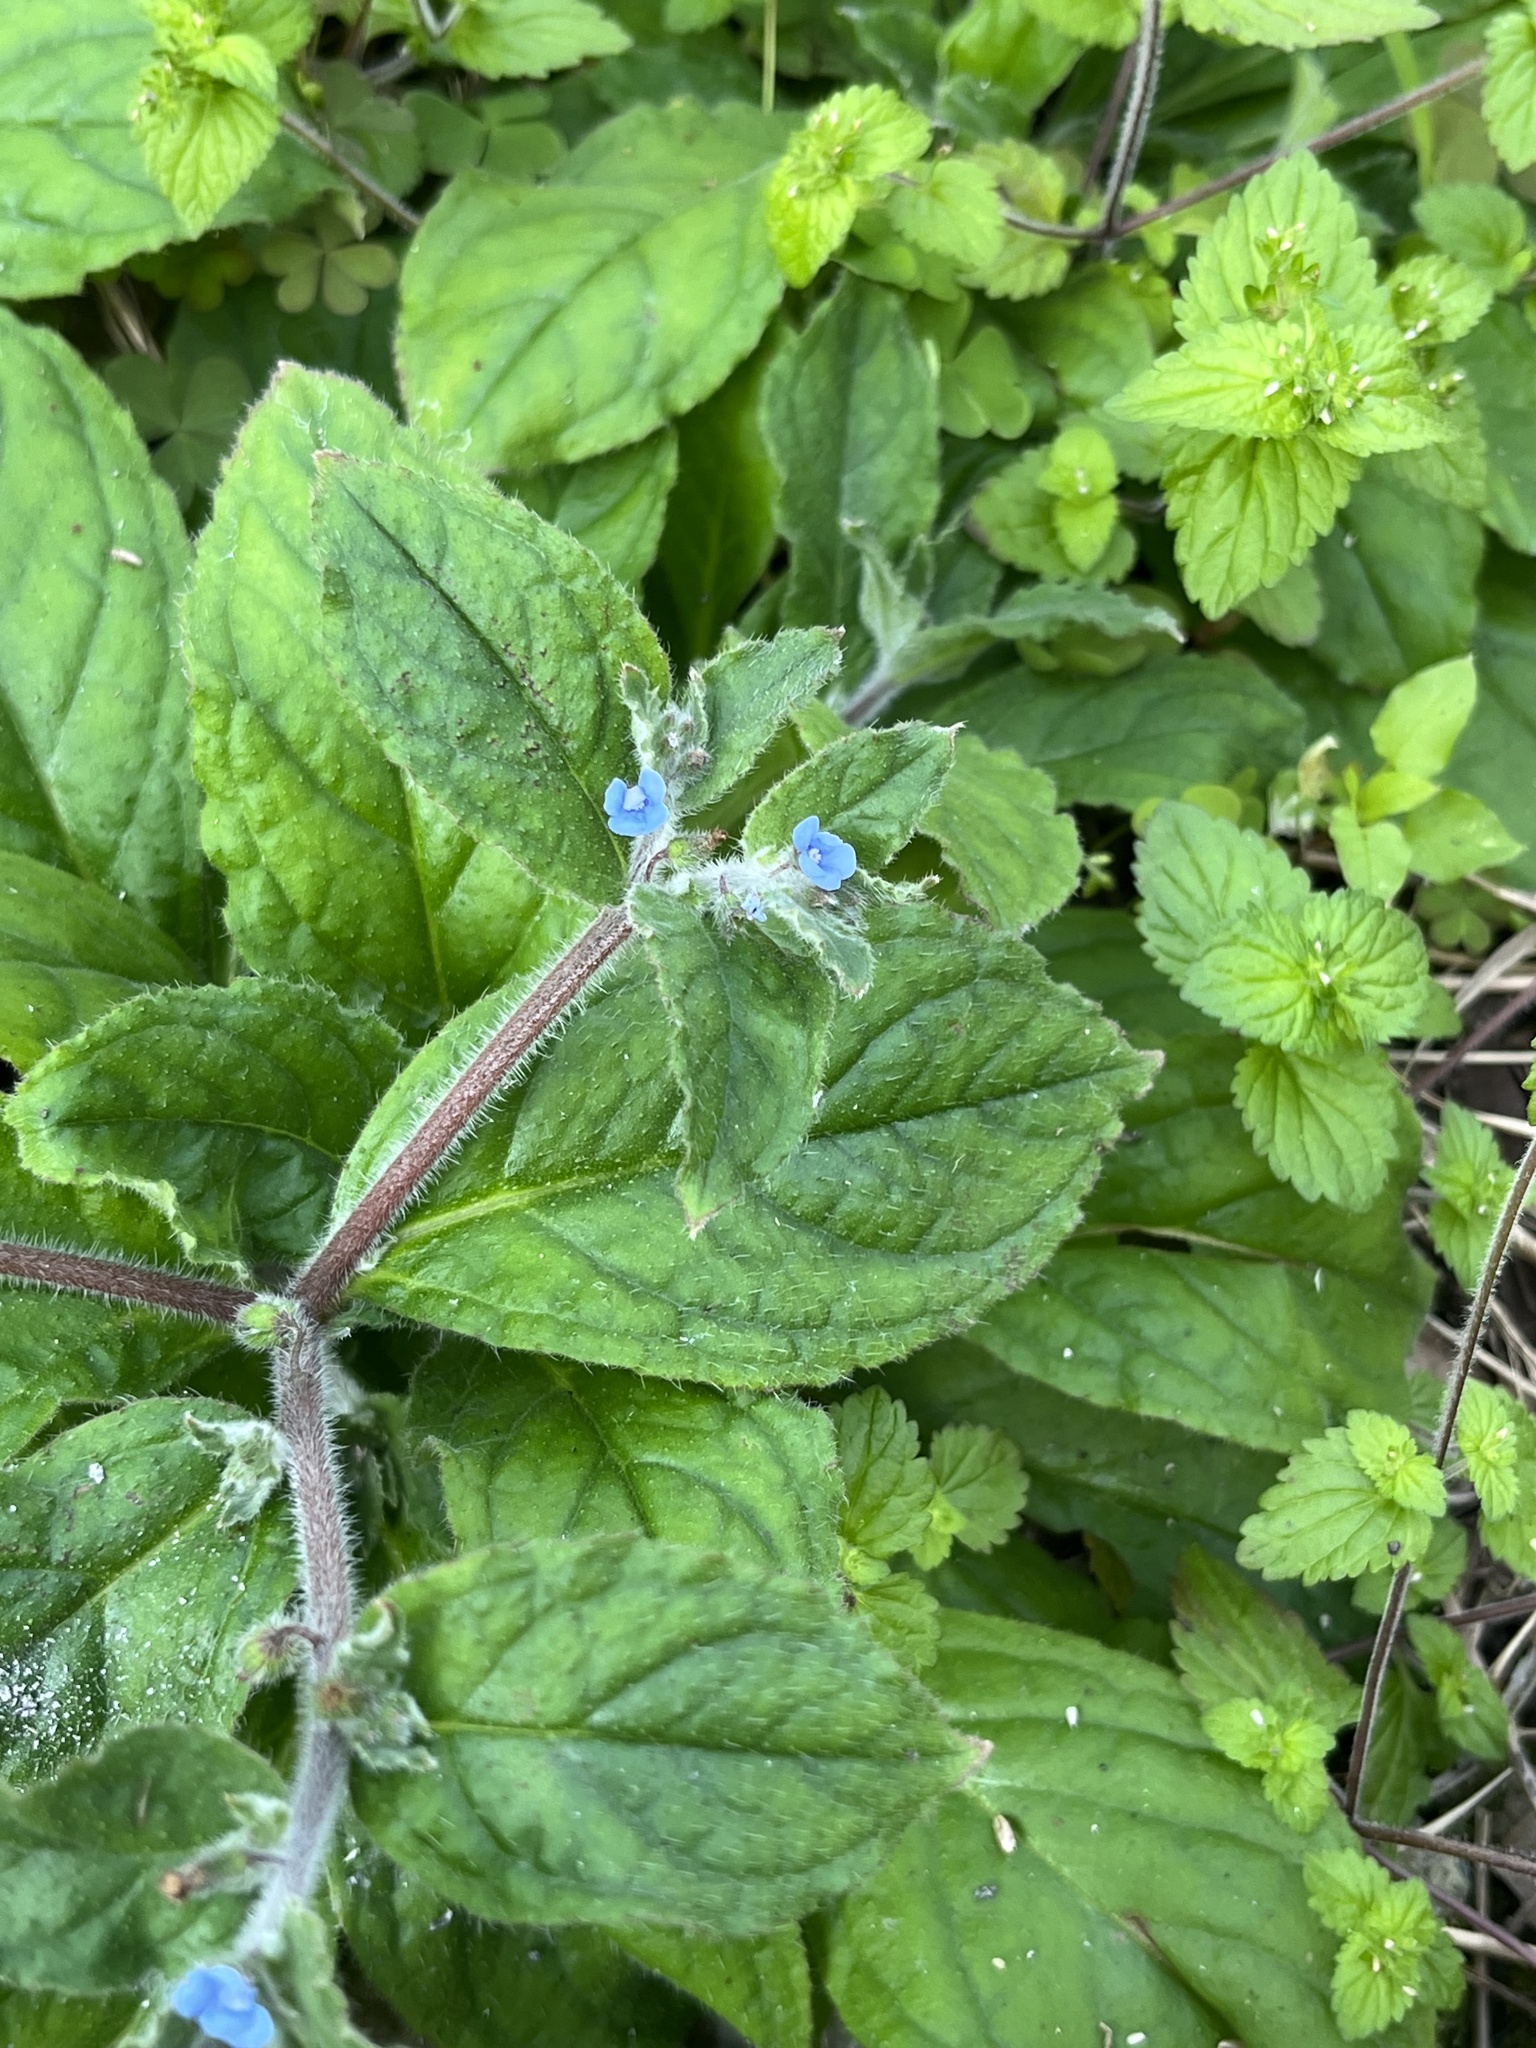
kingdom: Plantae
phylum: Tracheophyta
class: Magnoliopsida
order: Boraginales
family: Boraginaceae
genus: Thyrocarpus
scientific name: Thyrocarpus sampsonii
